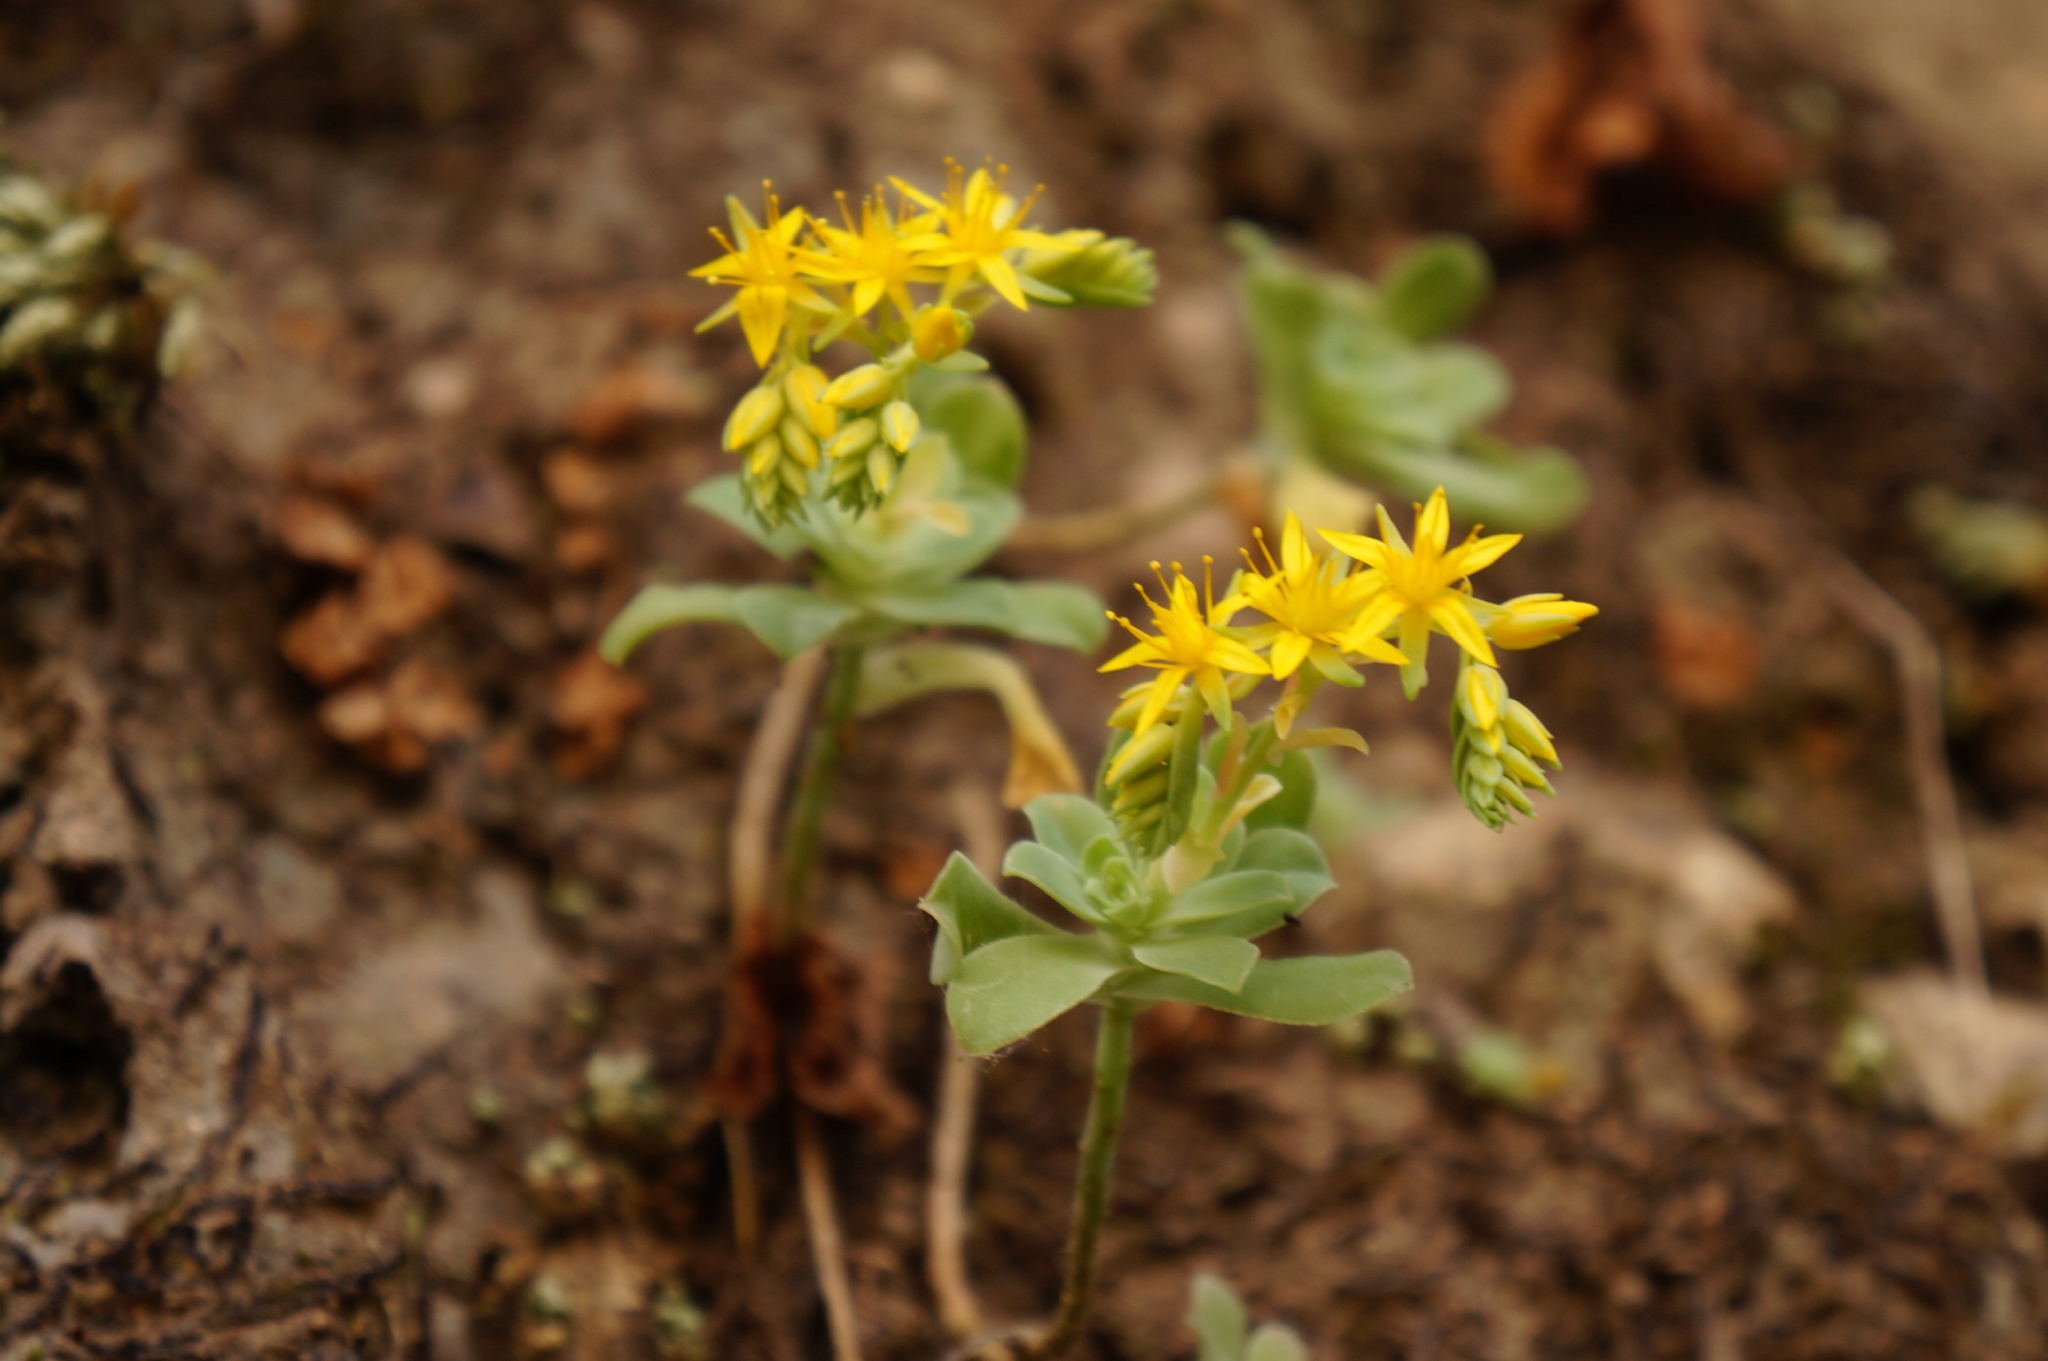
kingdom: Plantae
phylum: Tracheophyta
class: Magnoliopsida
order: Saxifragales
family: Crassulaceae
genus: Sedum
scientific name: Sedum palmeri
